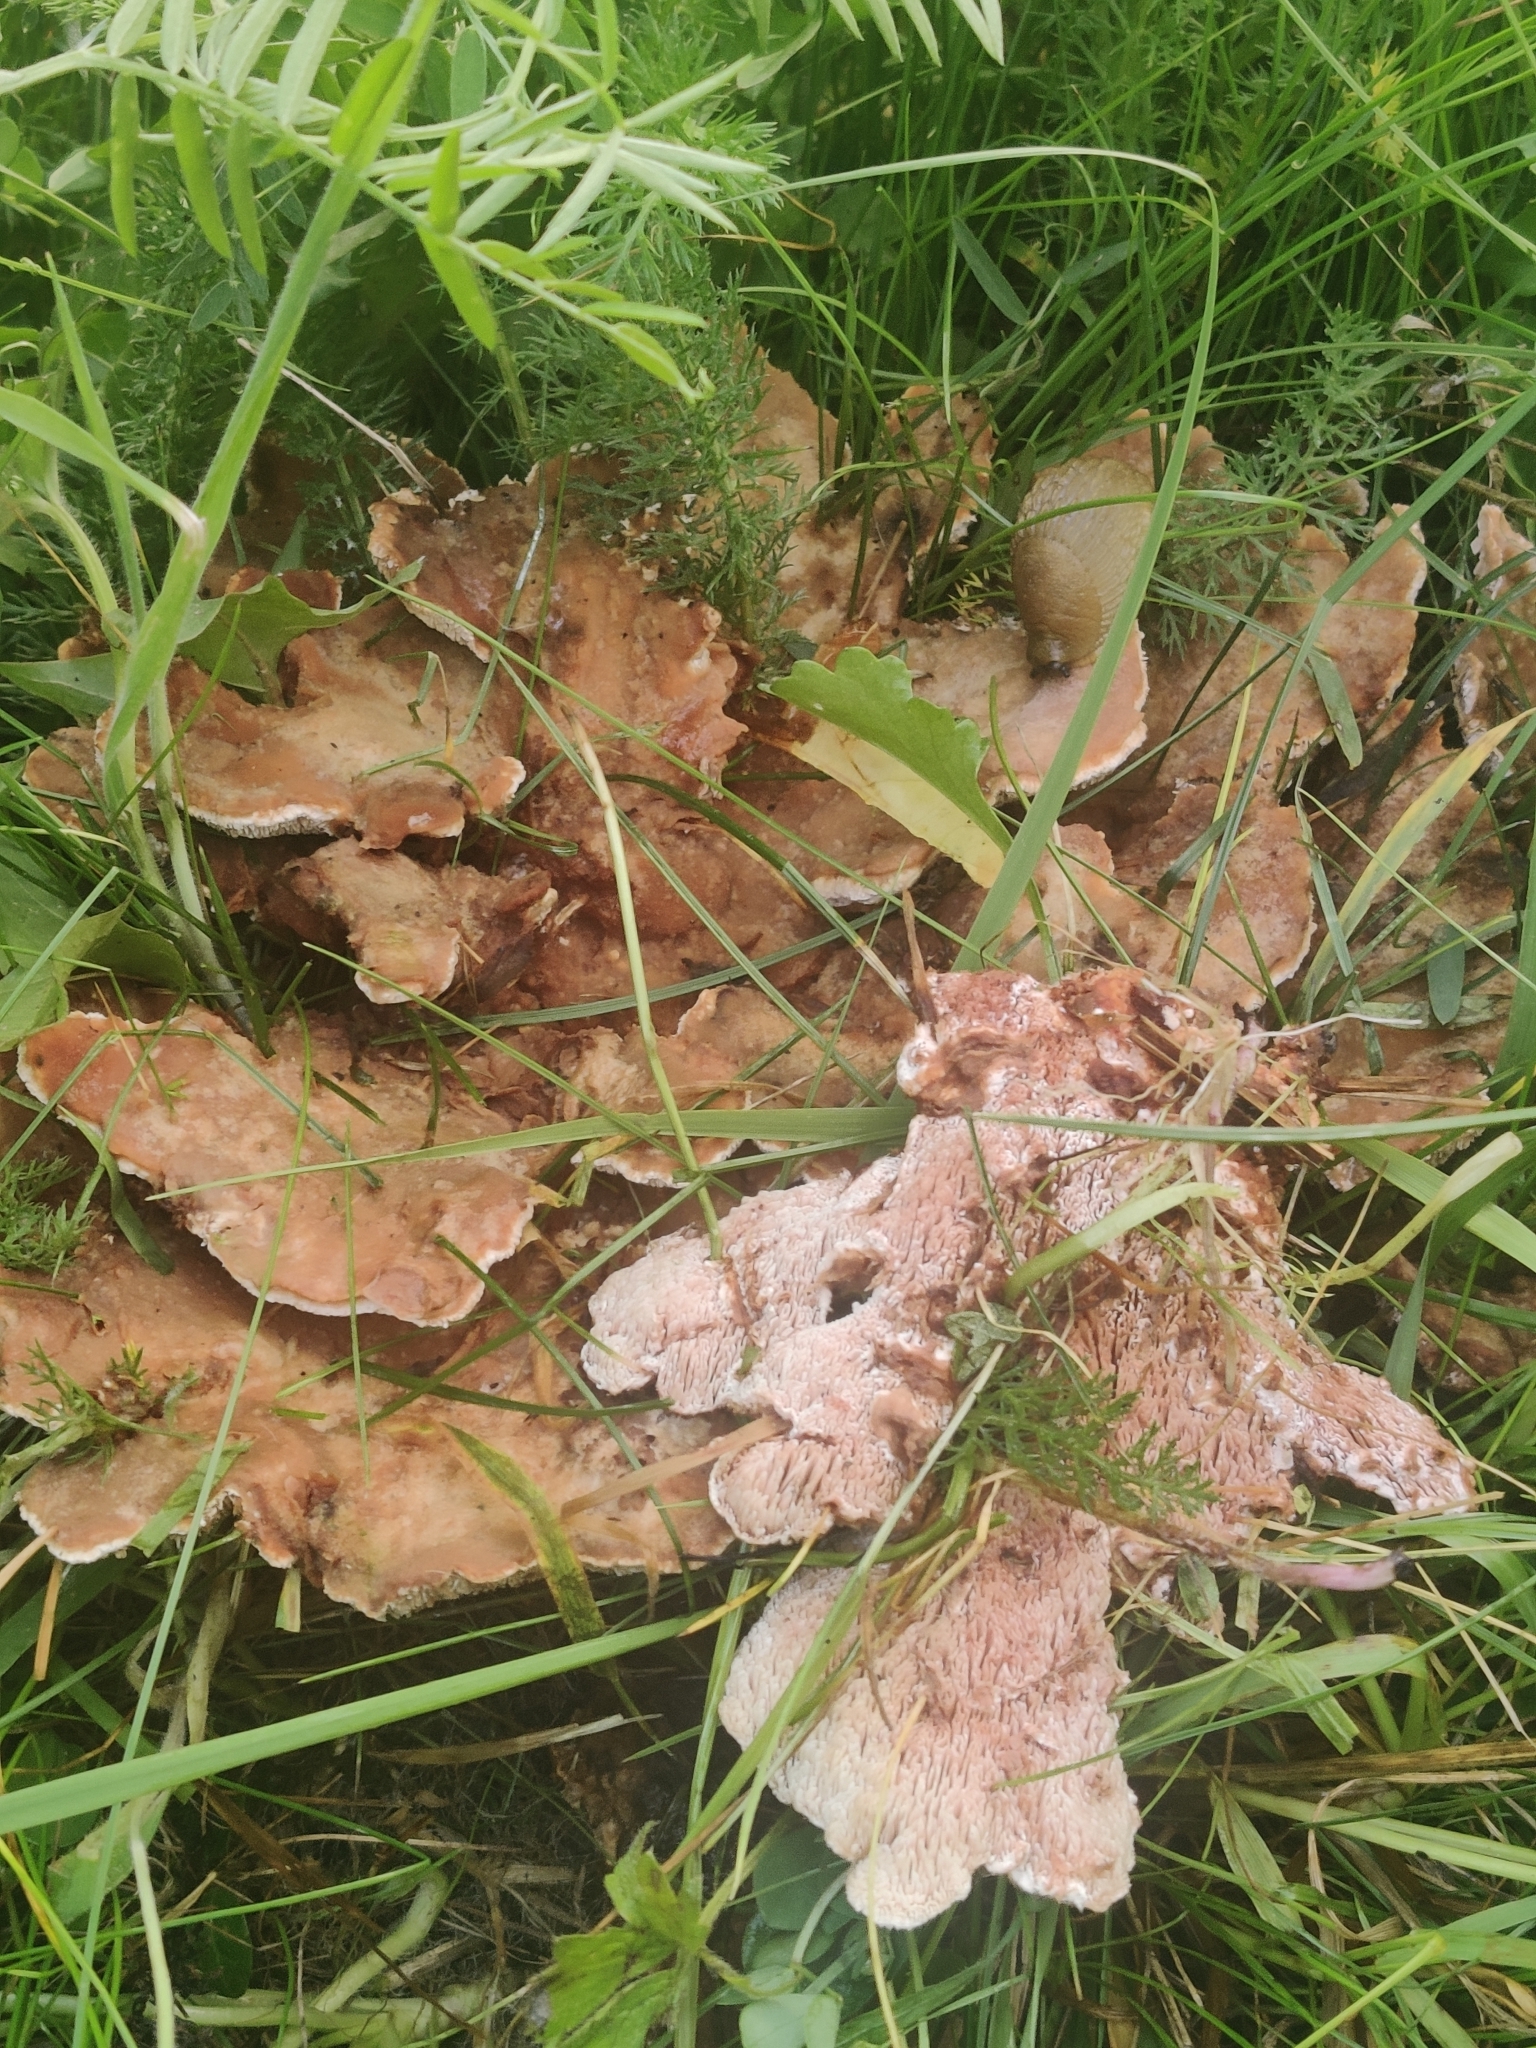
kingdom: Fungi
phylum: Basidiomycota
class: Agaricomycetes
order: Polyporales
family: Podoscyphaceae
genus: Abortiporus
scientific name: Abortiporus biennis
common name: Blushing rosette
